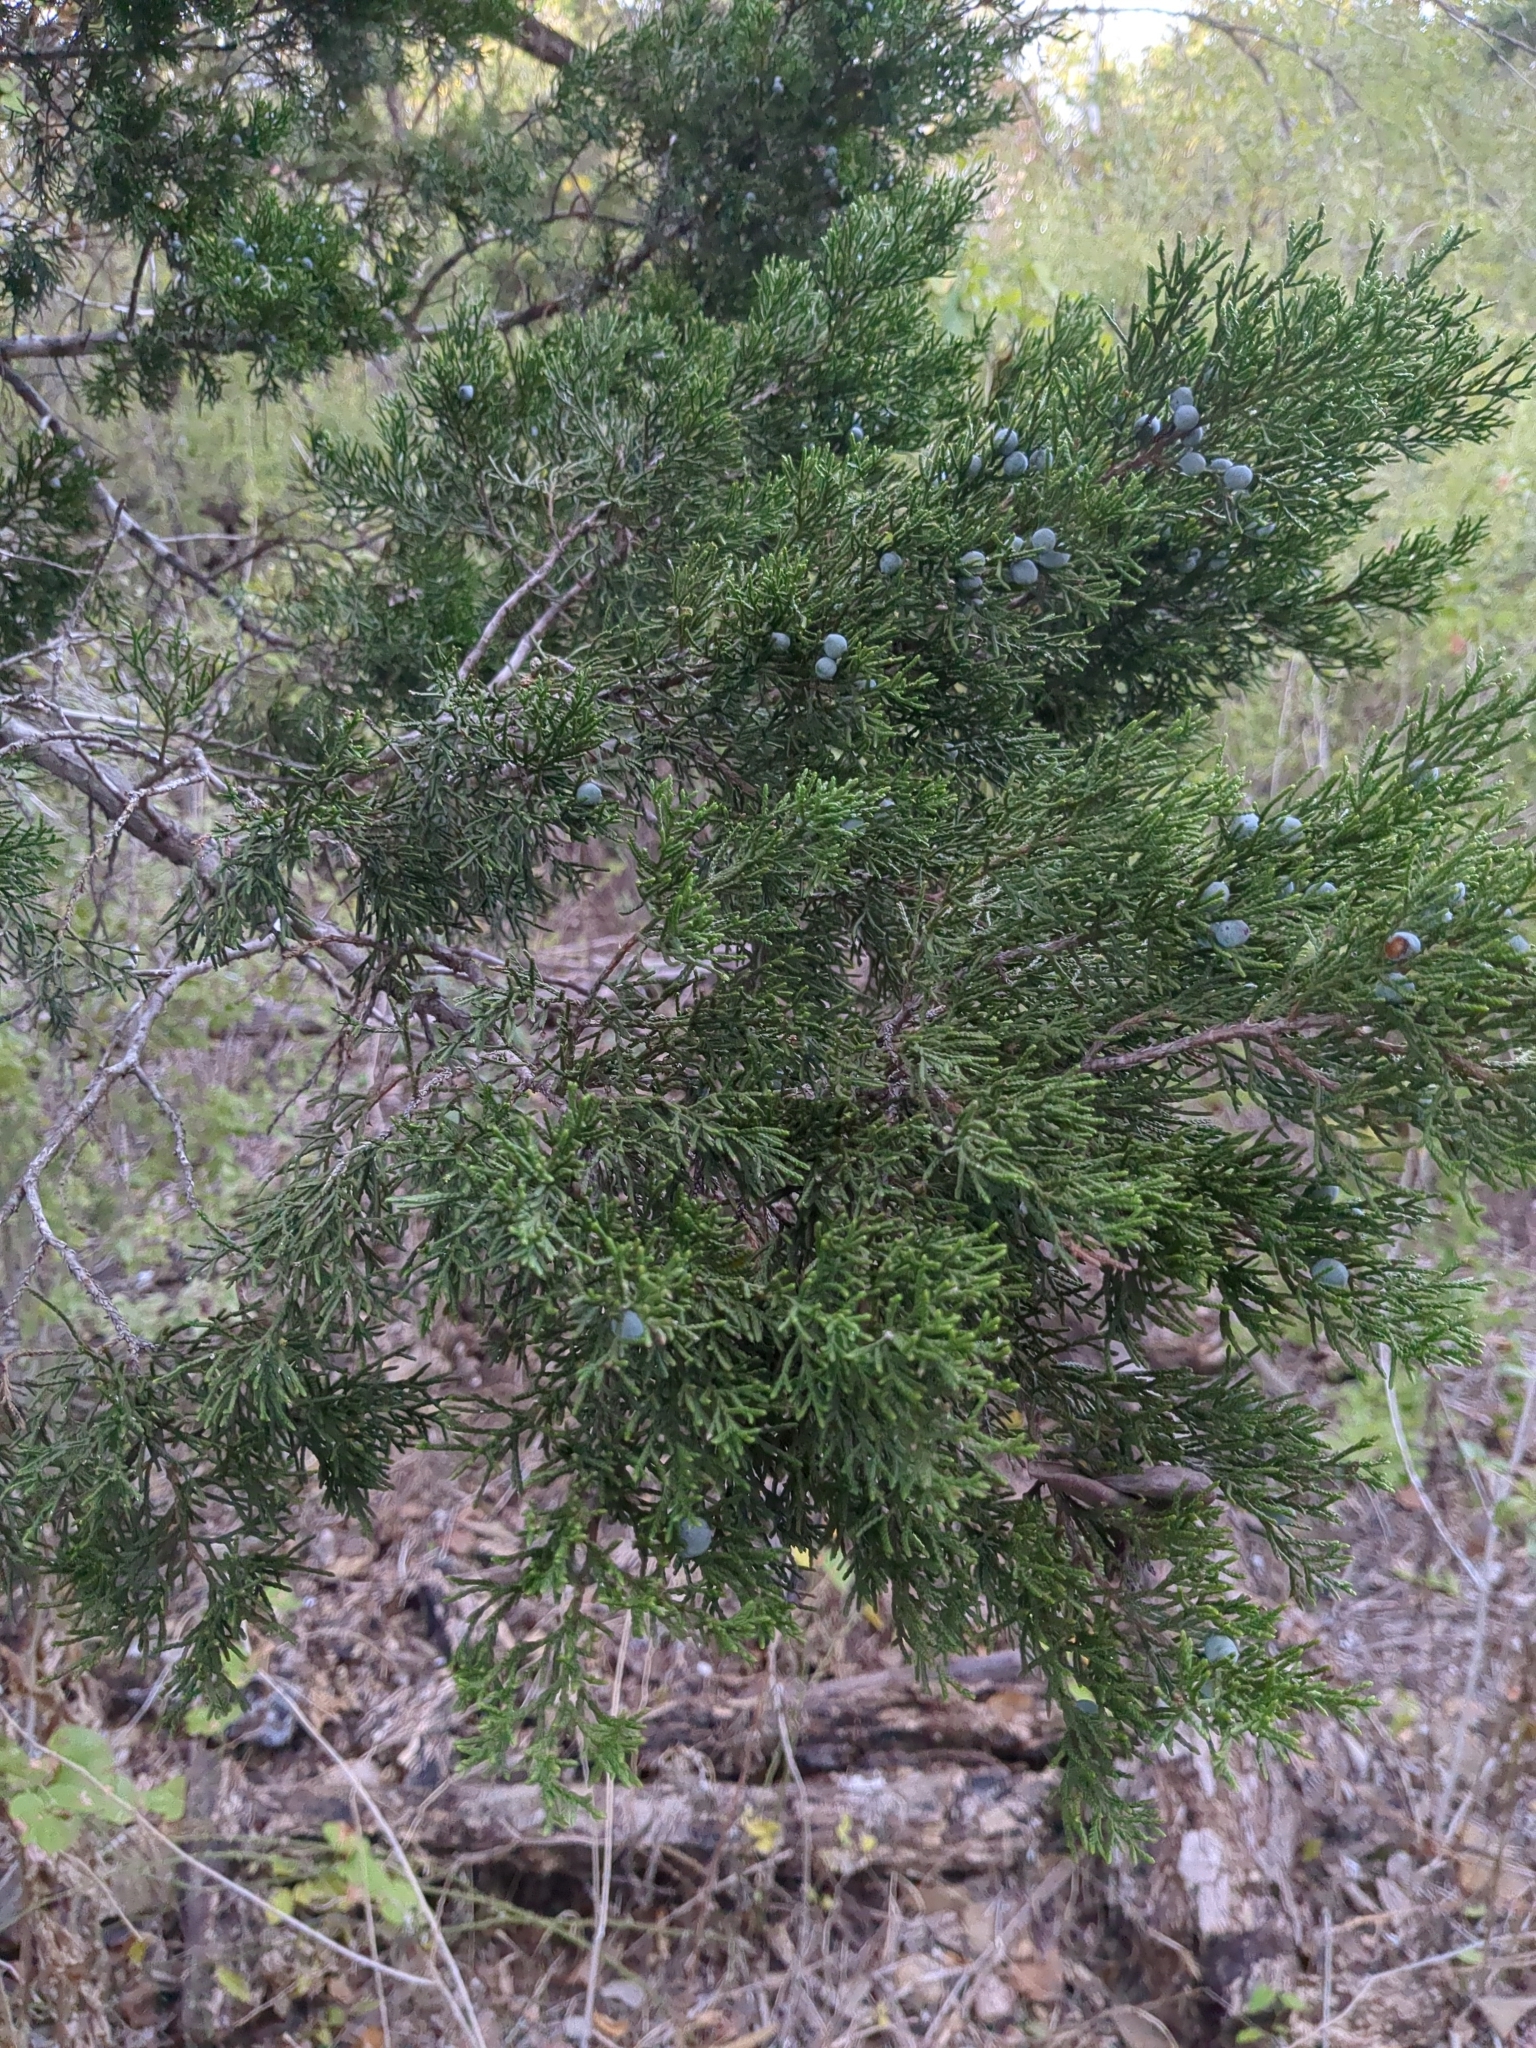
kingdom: Plantae
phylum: Tracheophyta
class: Pinopsida
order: Pinales
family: Cupressaceae
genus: Juniperus
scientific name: Juniperus ashei
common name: Mexican juniper
